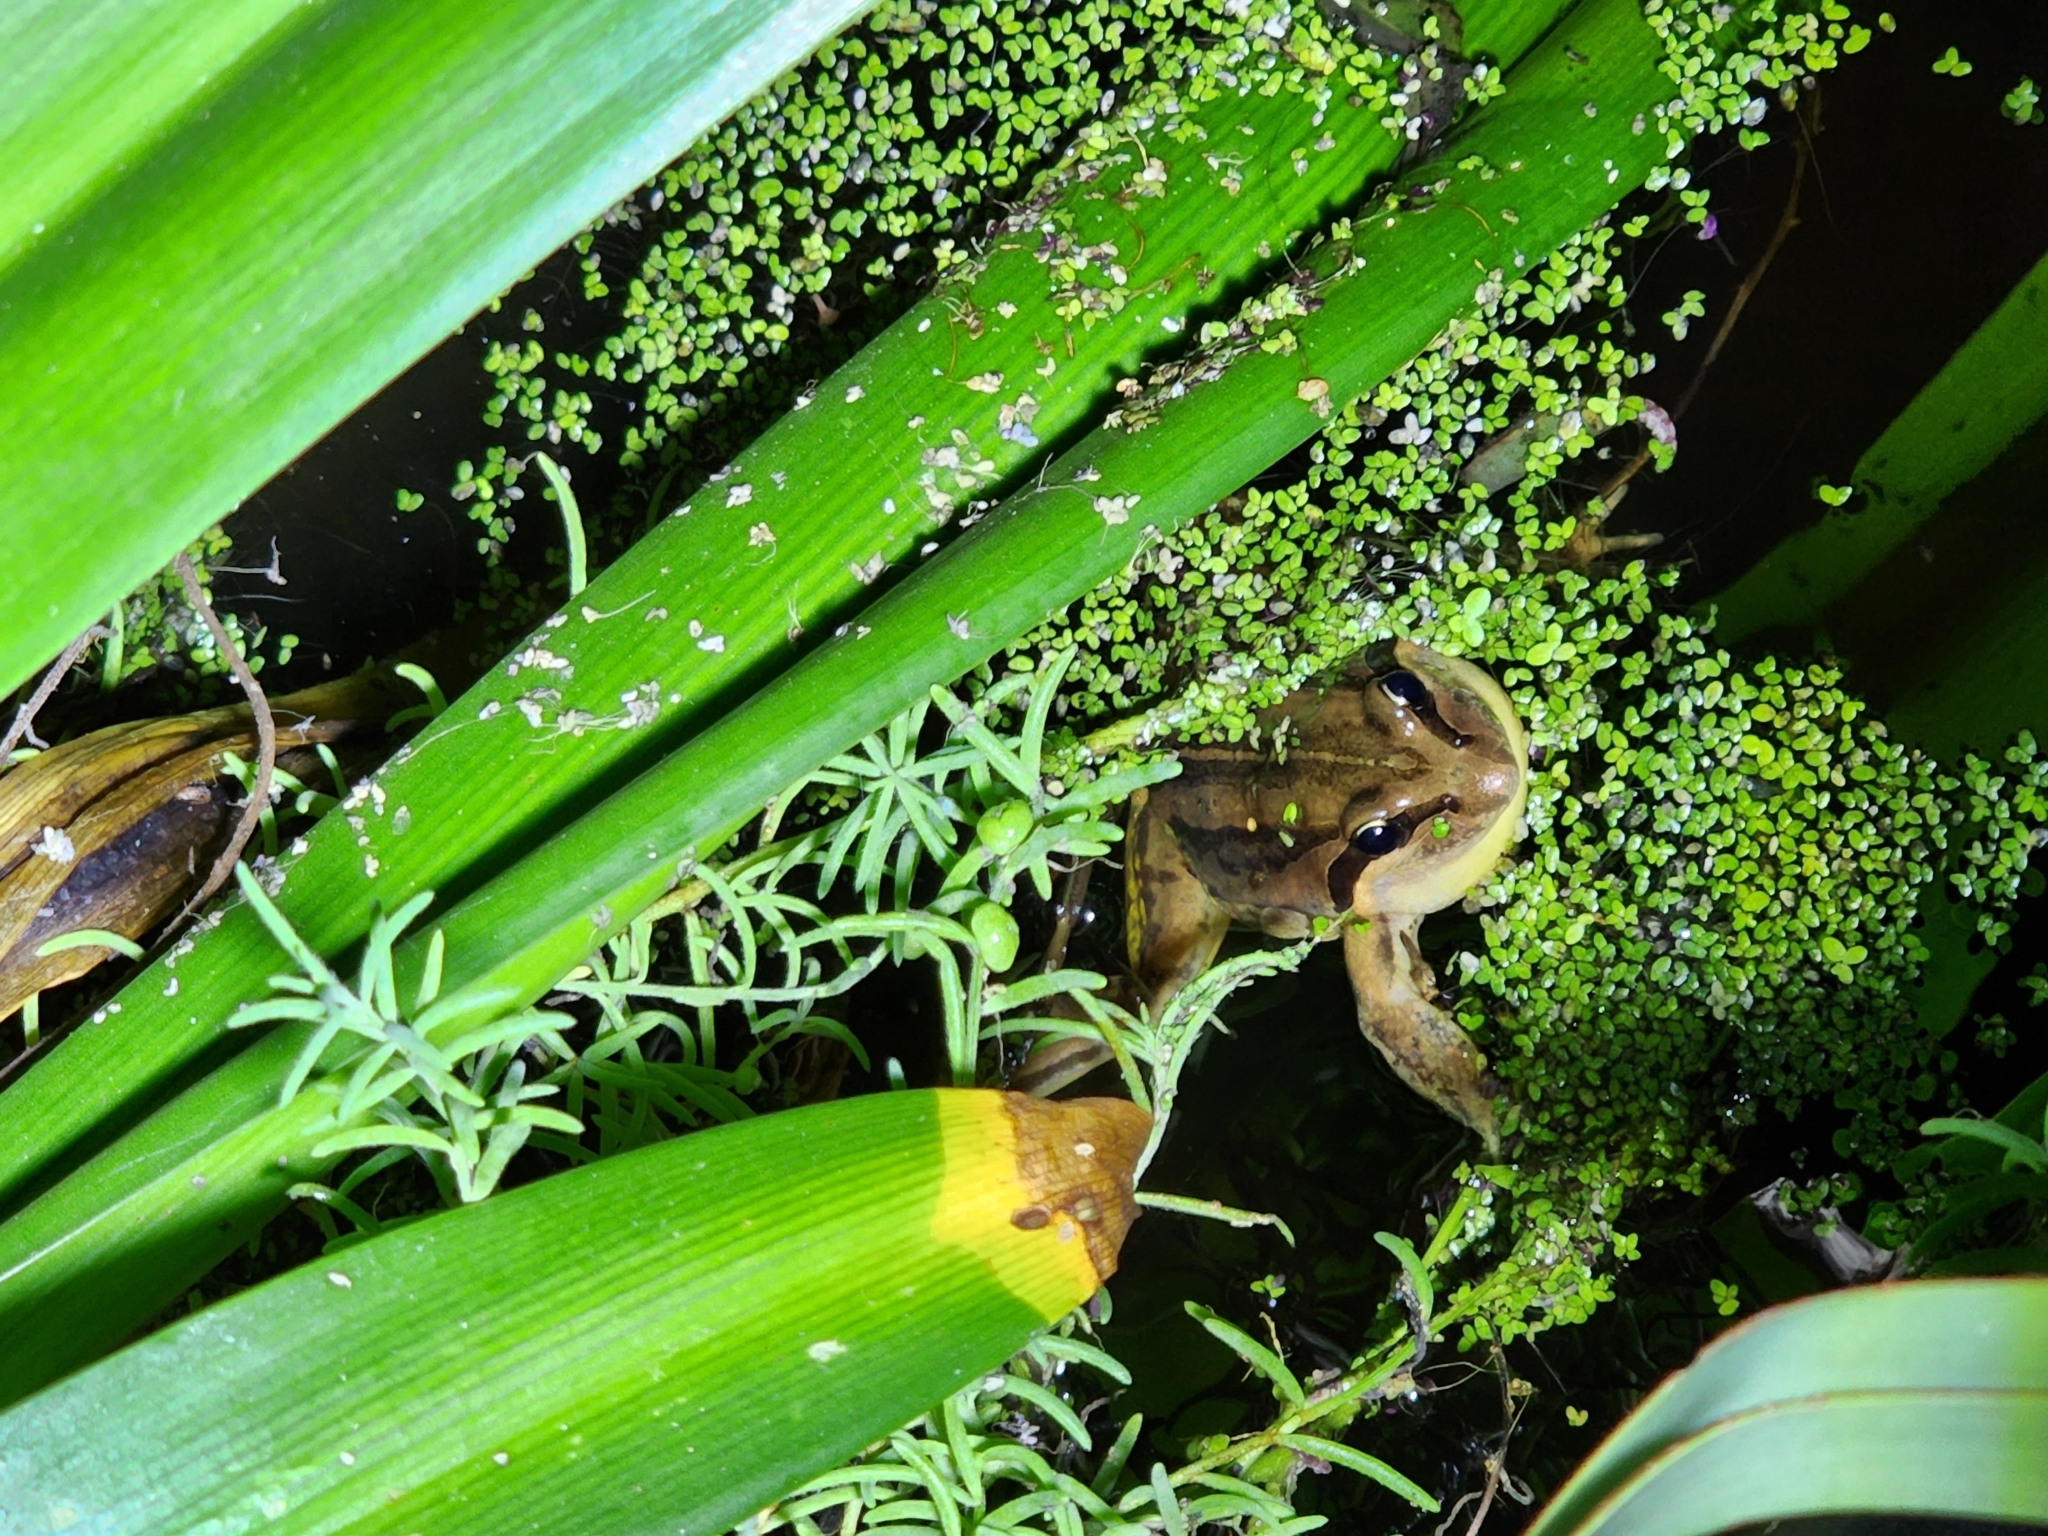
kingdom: Animalia
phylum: Chordata
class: Amphibia
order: Anura
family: Limnodynastidae
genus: Limnodynastes
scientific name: Limnodynastes peronii
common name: Brown frog
